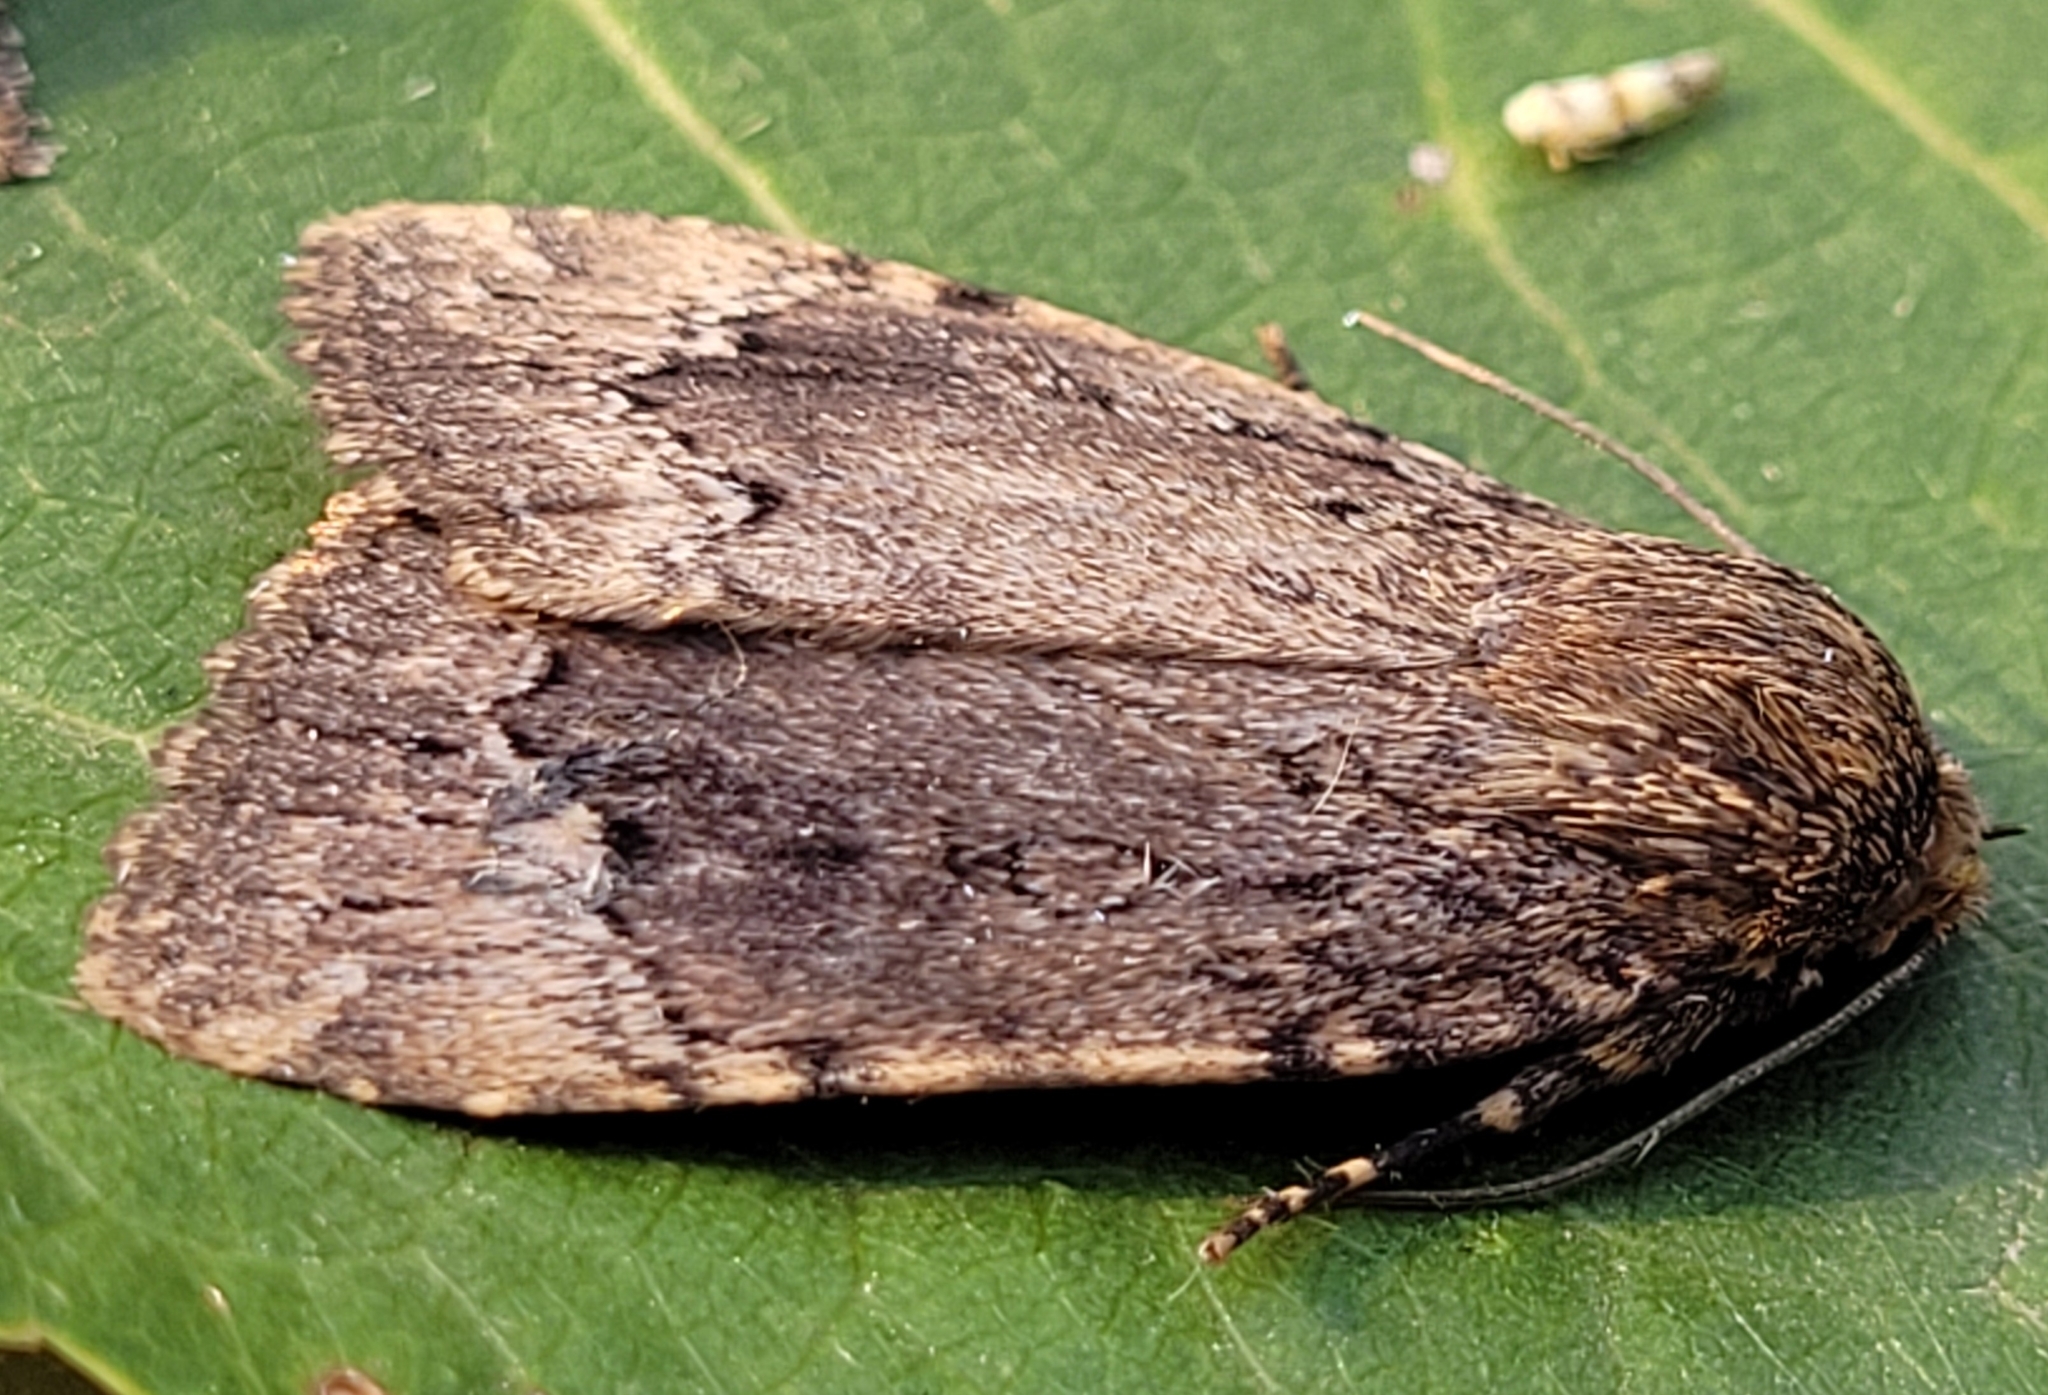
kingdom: Animalia
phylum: Arthropoda
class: Insecta
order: Lepidoptera
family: Noctuidae
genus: Amphipyra
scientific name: Amphipyra pyramidoides
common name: American copper underwing
